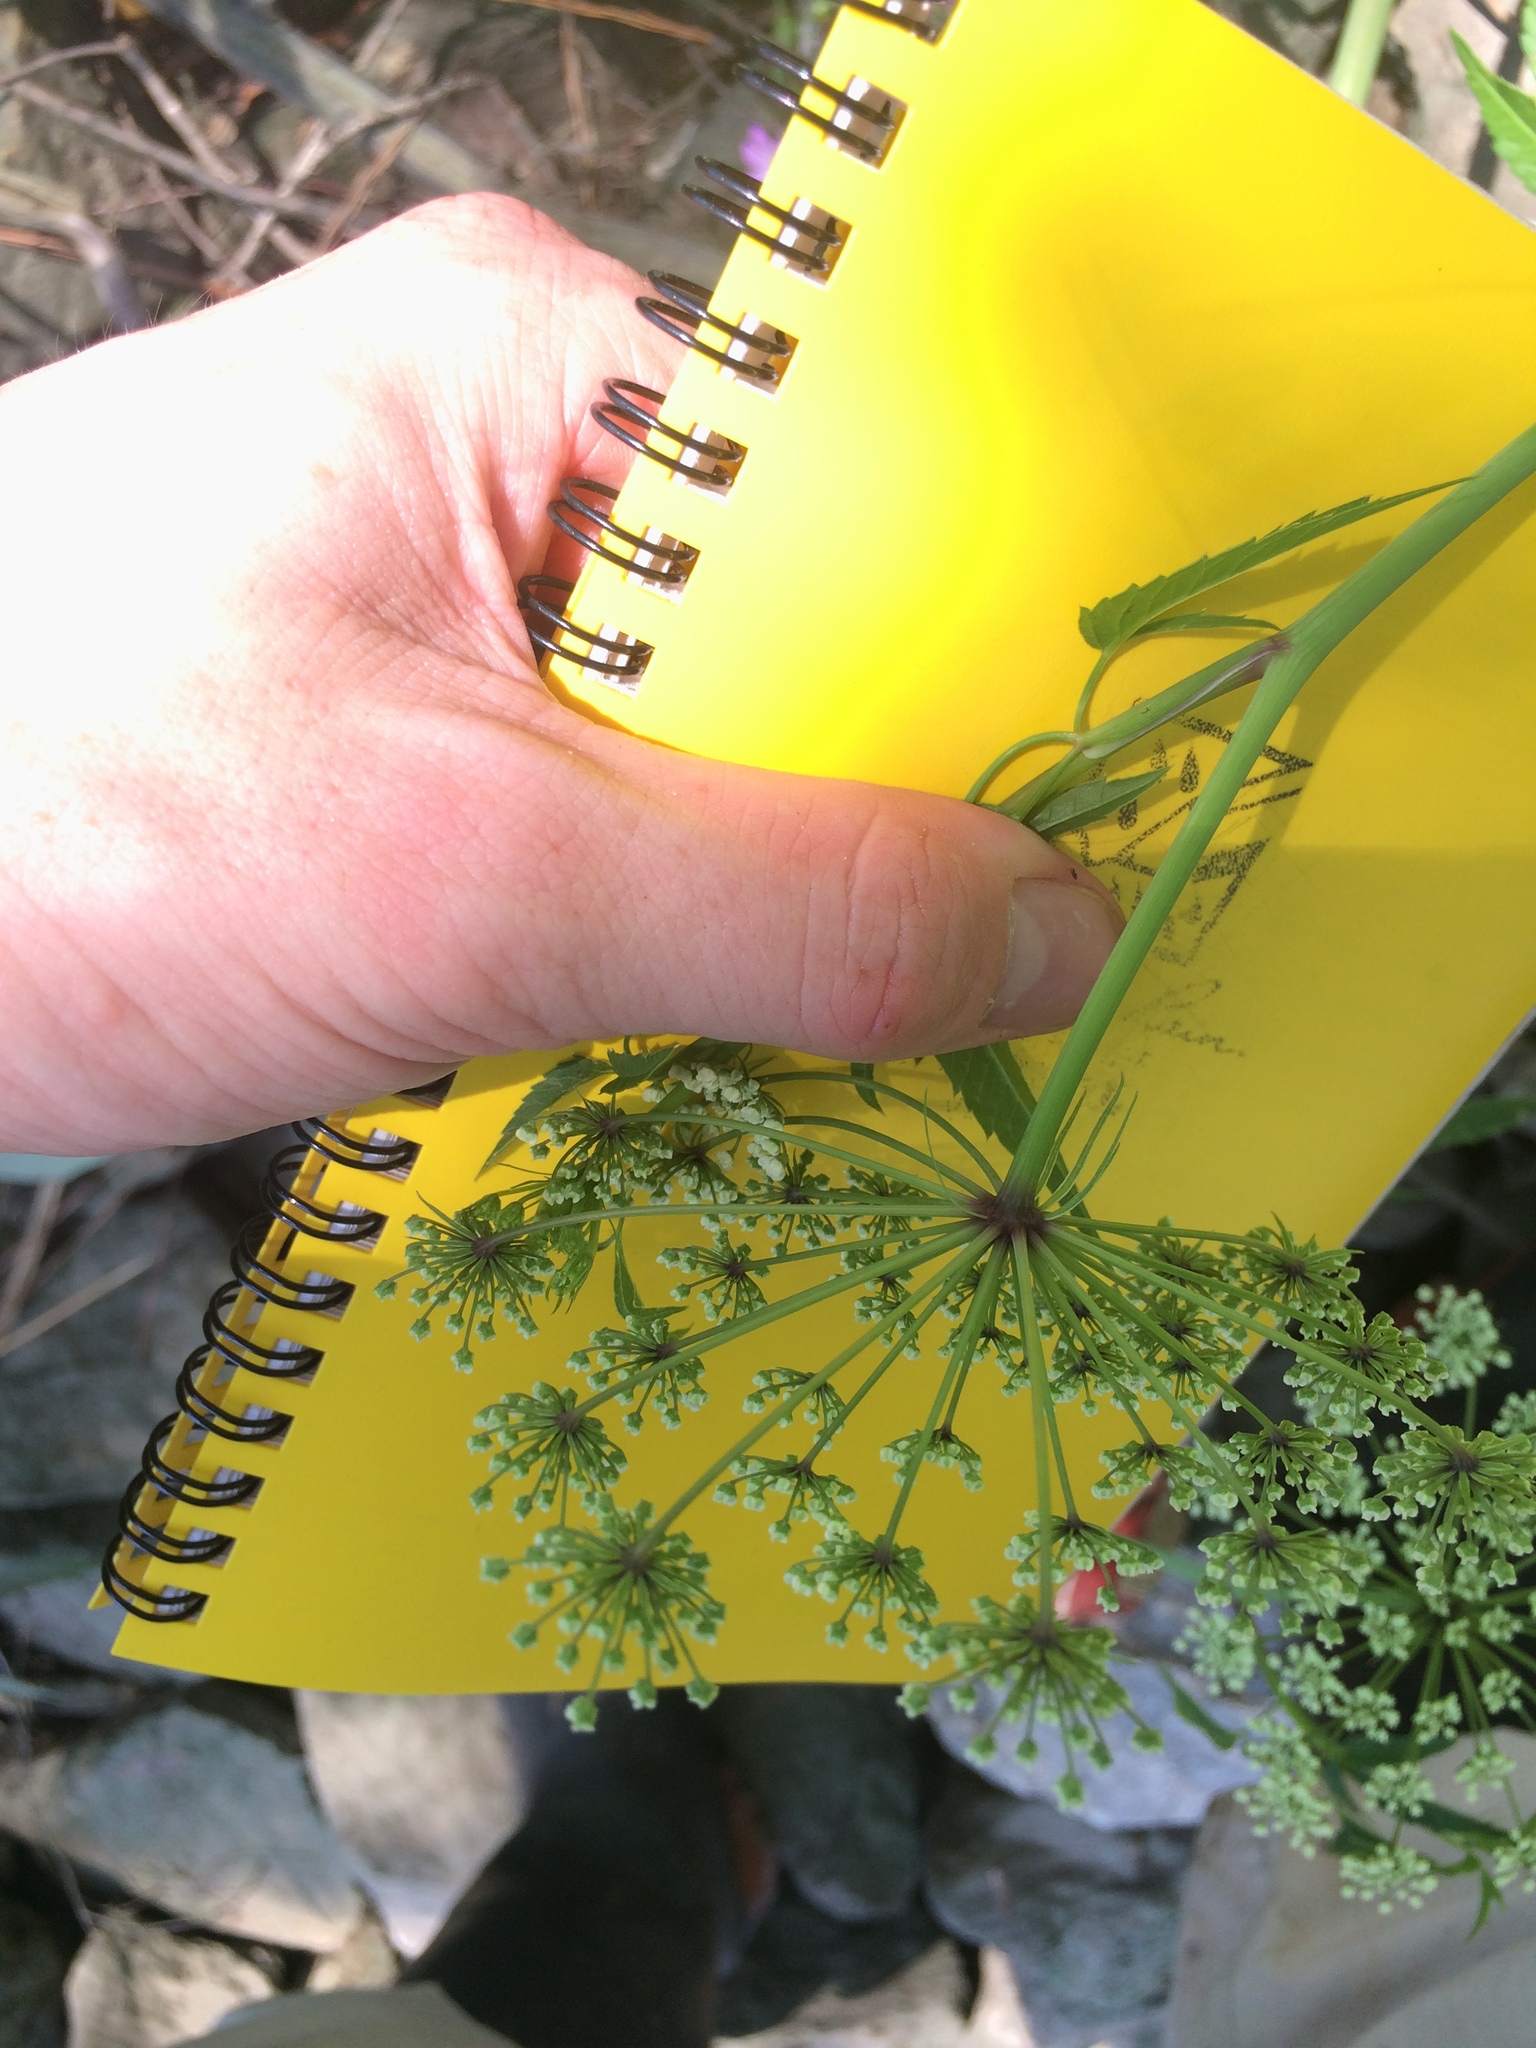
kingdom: Plantae
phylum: Tracheophyta
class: Magnoliopsida
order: Apiales
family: Apiaceae
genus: Cicuta
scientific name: Cicuta maculata
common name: Spotted cowbane
